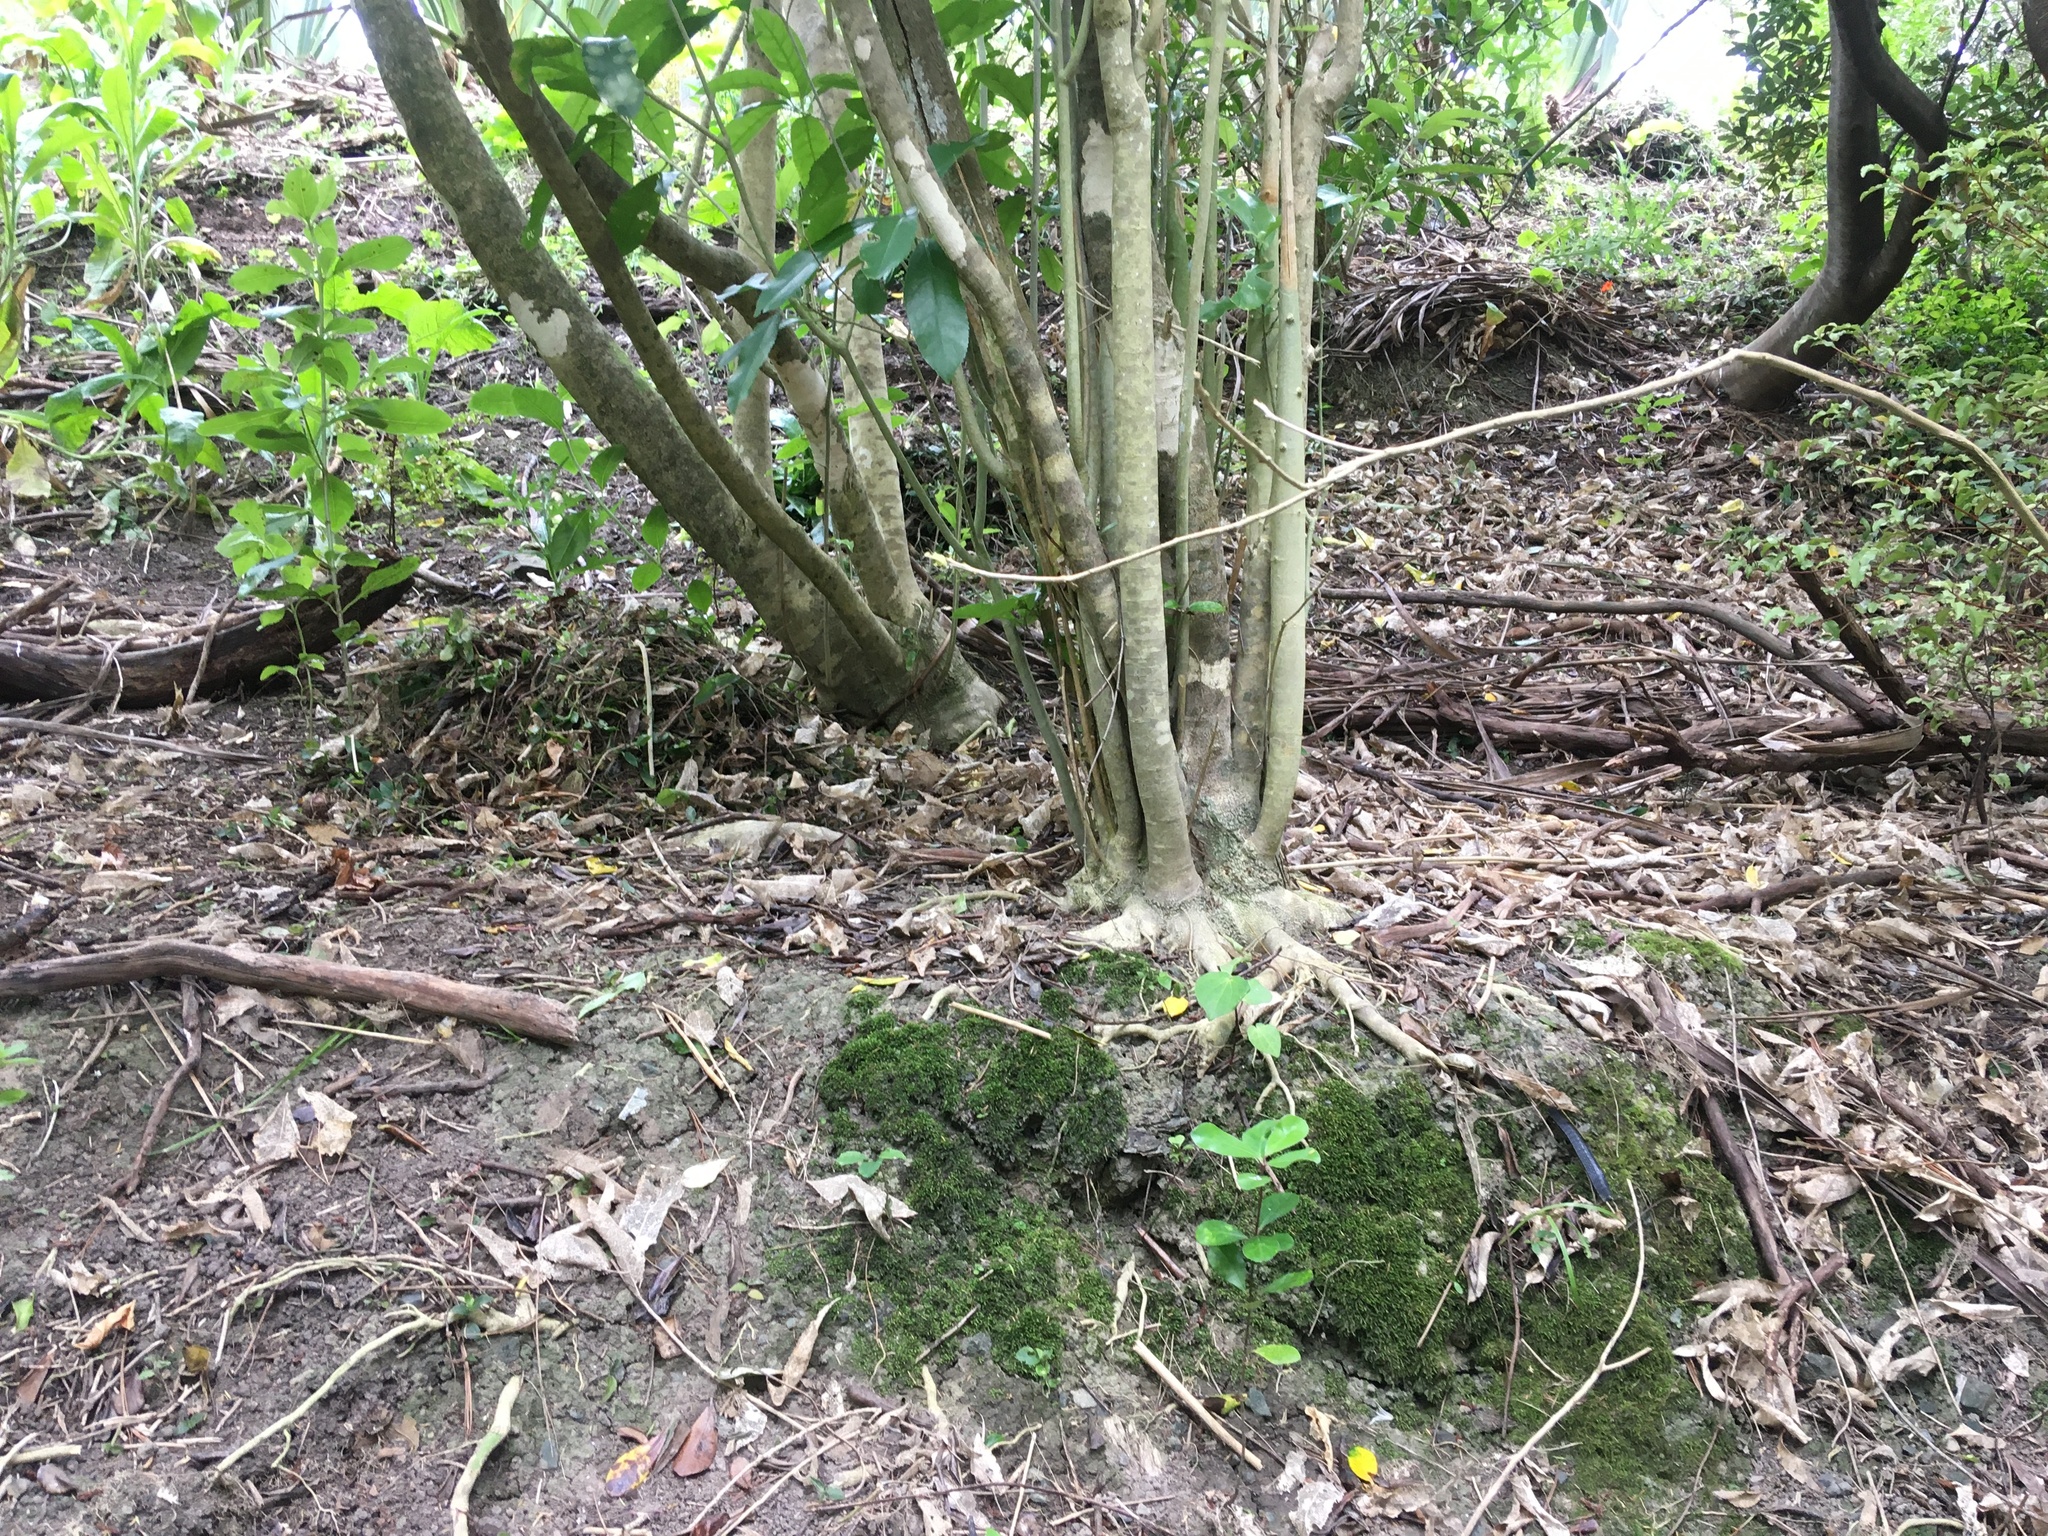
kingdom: Plantae
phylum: Tracheophyta
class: Magnoliopsida
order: Cucurbitales
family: Corynocarpaceae
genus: Corynocarpus
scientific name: Corynocarpus laevigatus
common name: New zealand laurel
